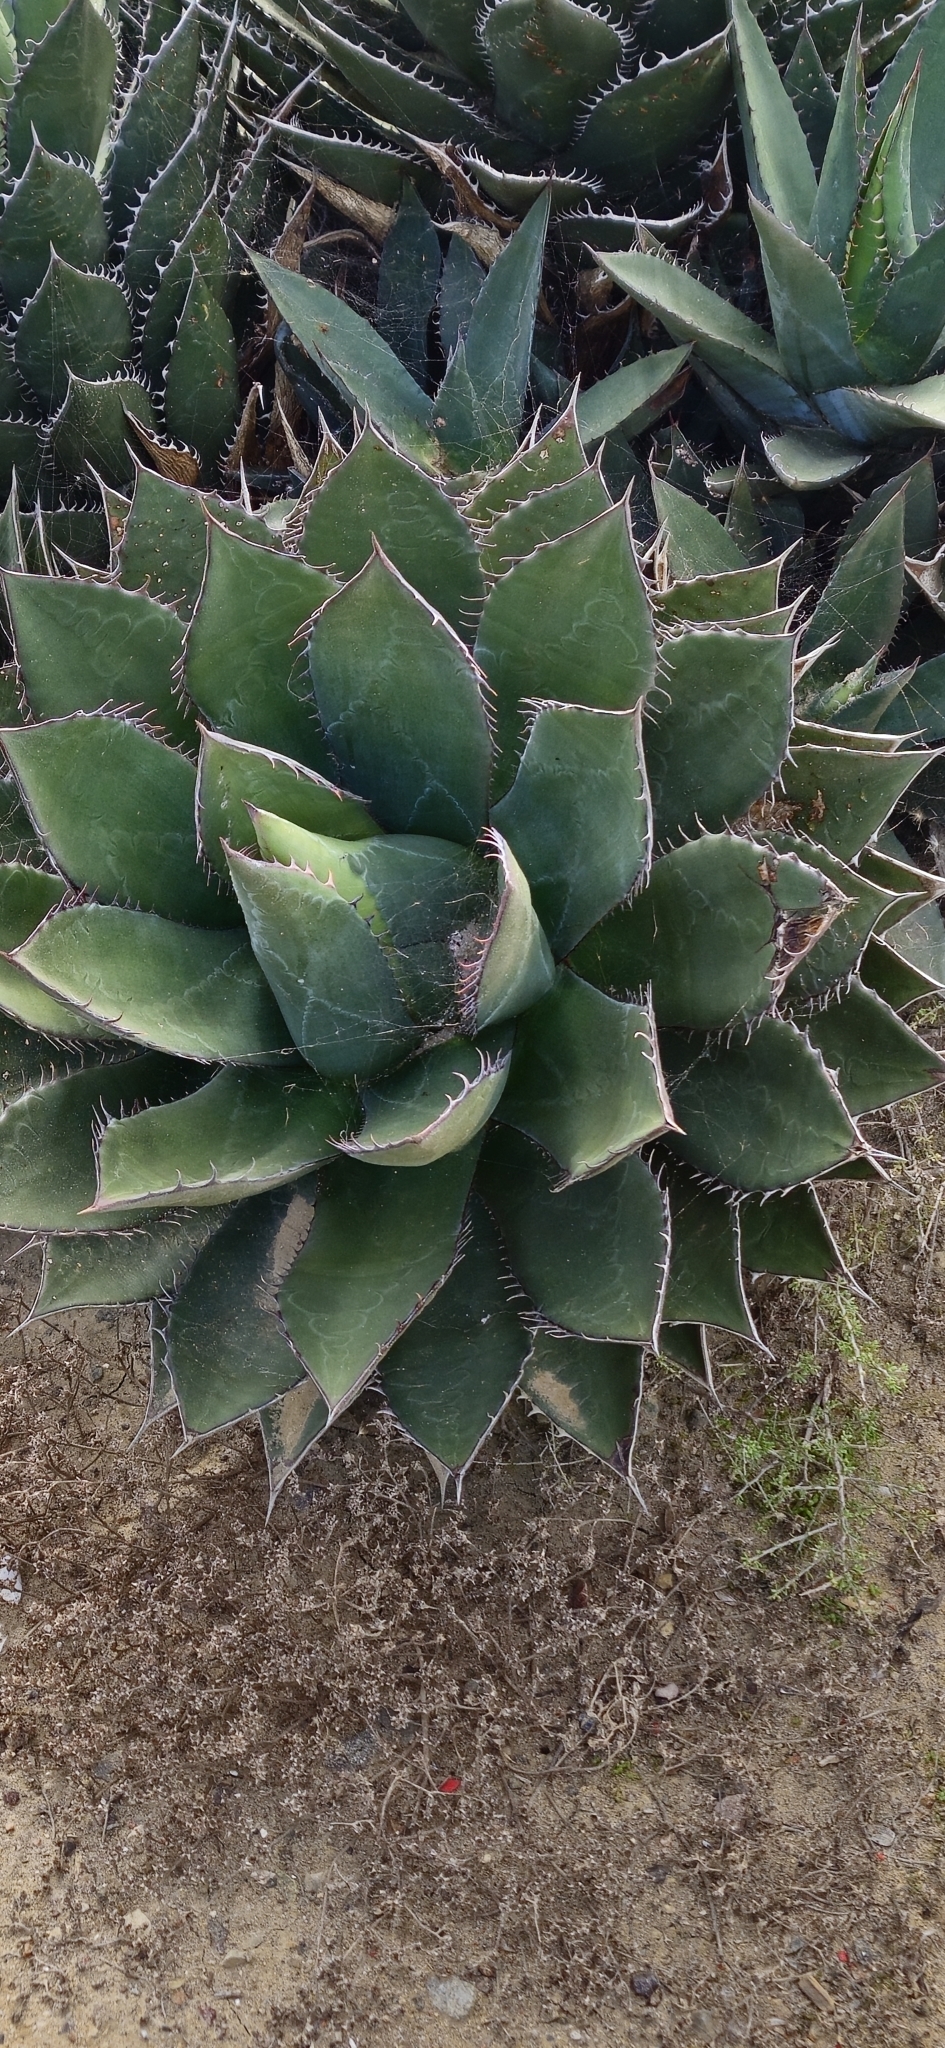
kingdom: Plantae
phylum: Tracheophyta
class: Liliopsida
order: Asparagales
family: Asparagaceae
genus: Agave
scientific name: Agave shawii
